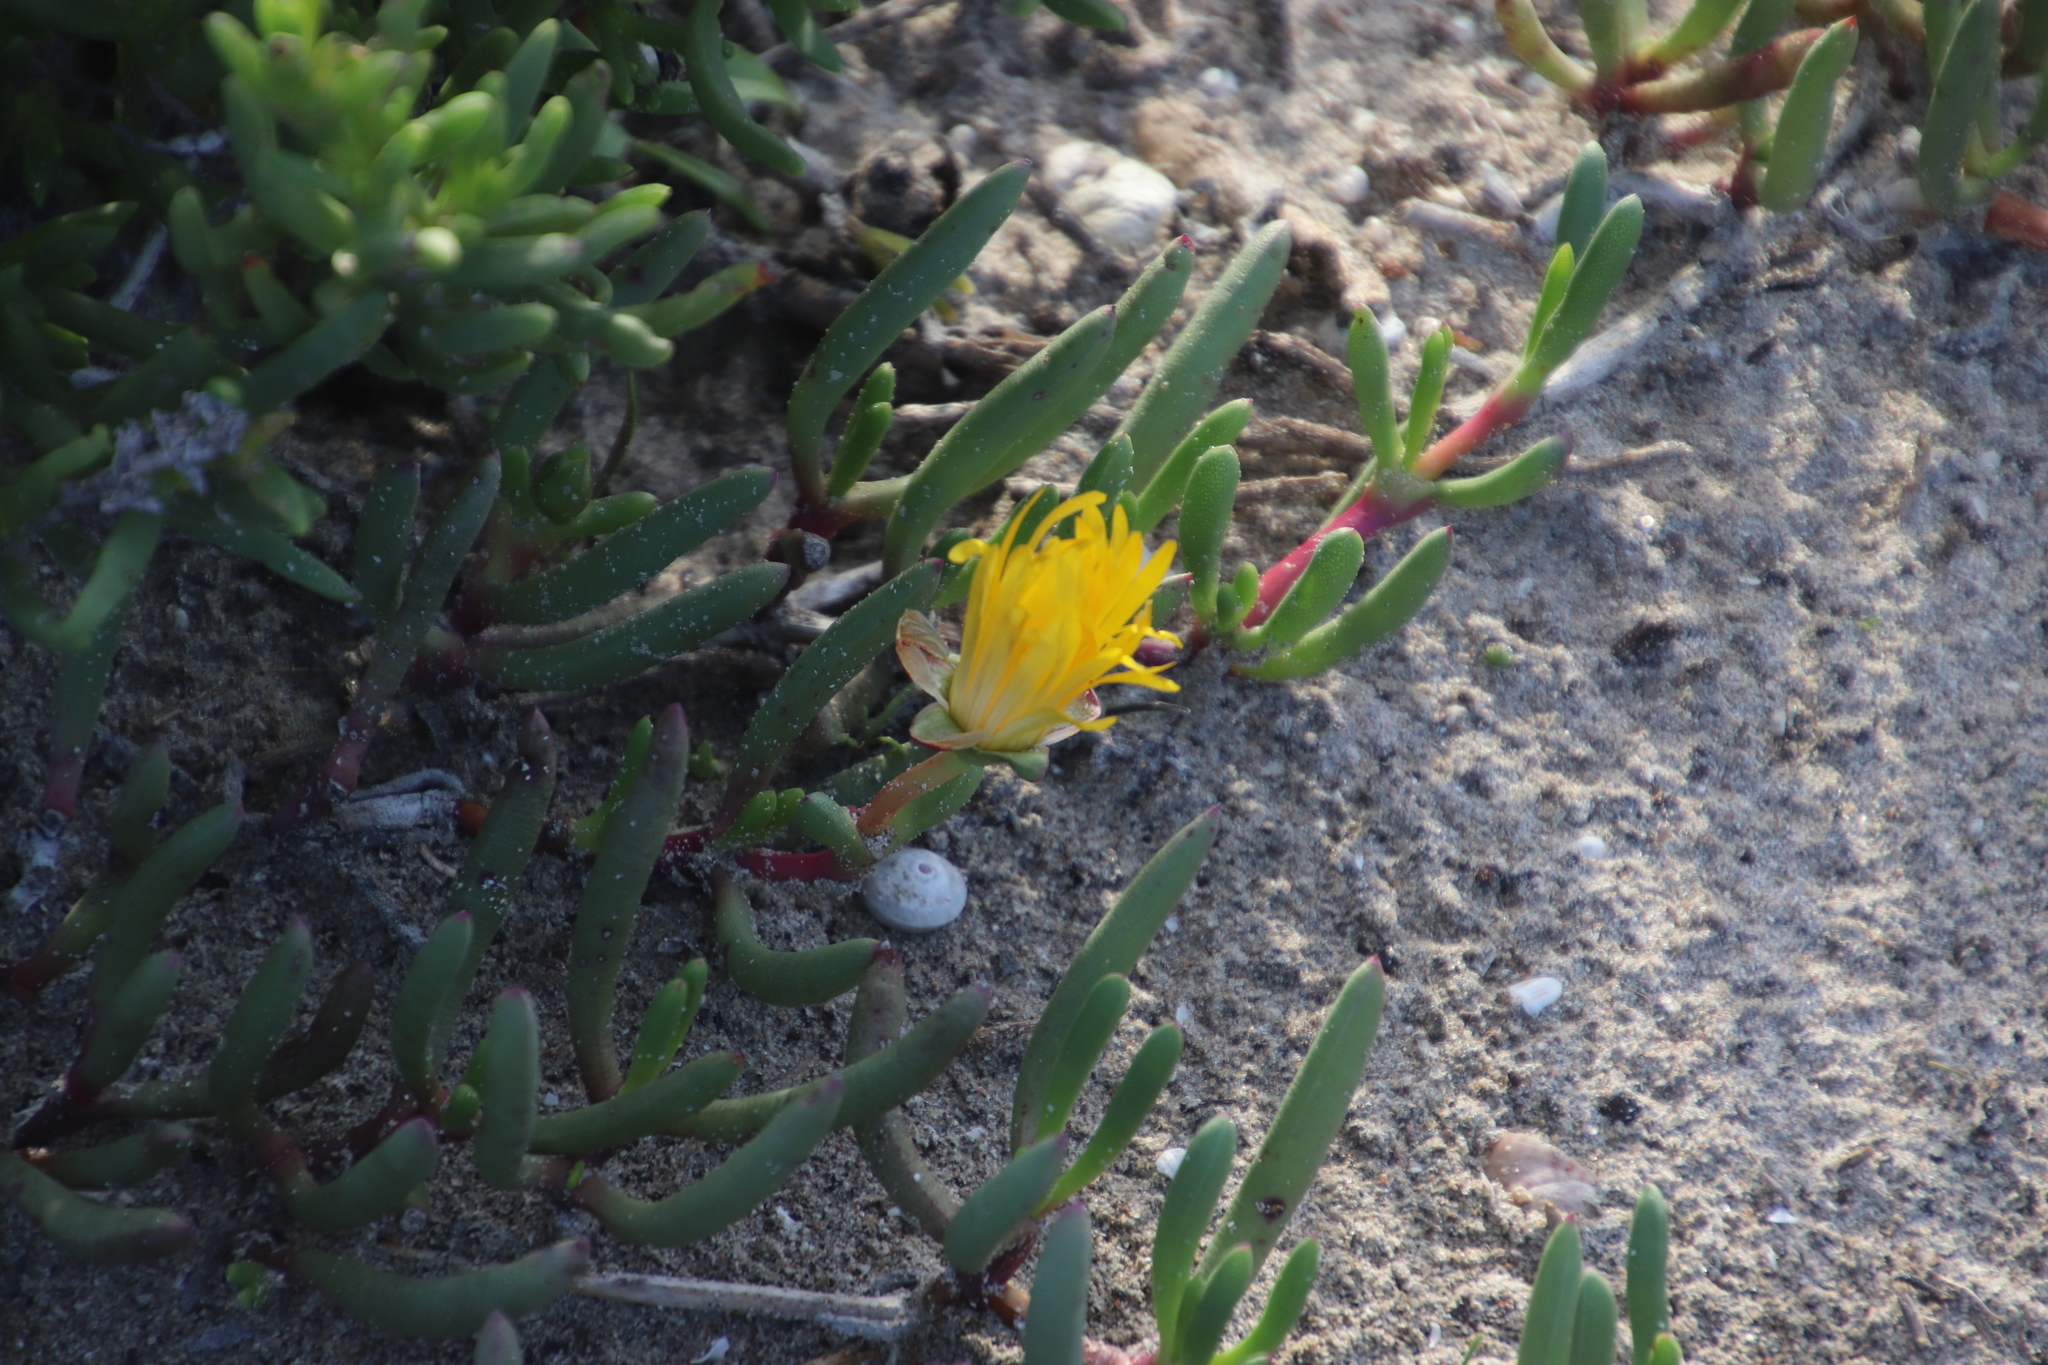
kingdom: Plantae
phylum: Tracheophyta
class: Magnoliopsida
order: Caryophyllales
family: Aizoaceae
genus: Jordaaniella
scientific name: Jordaaniella dubia
